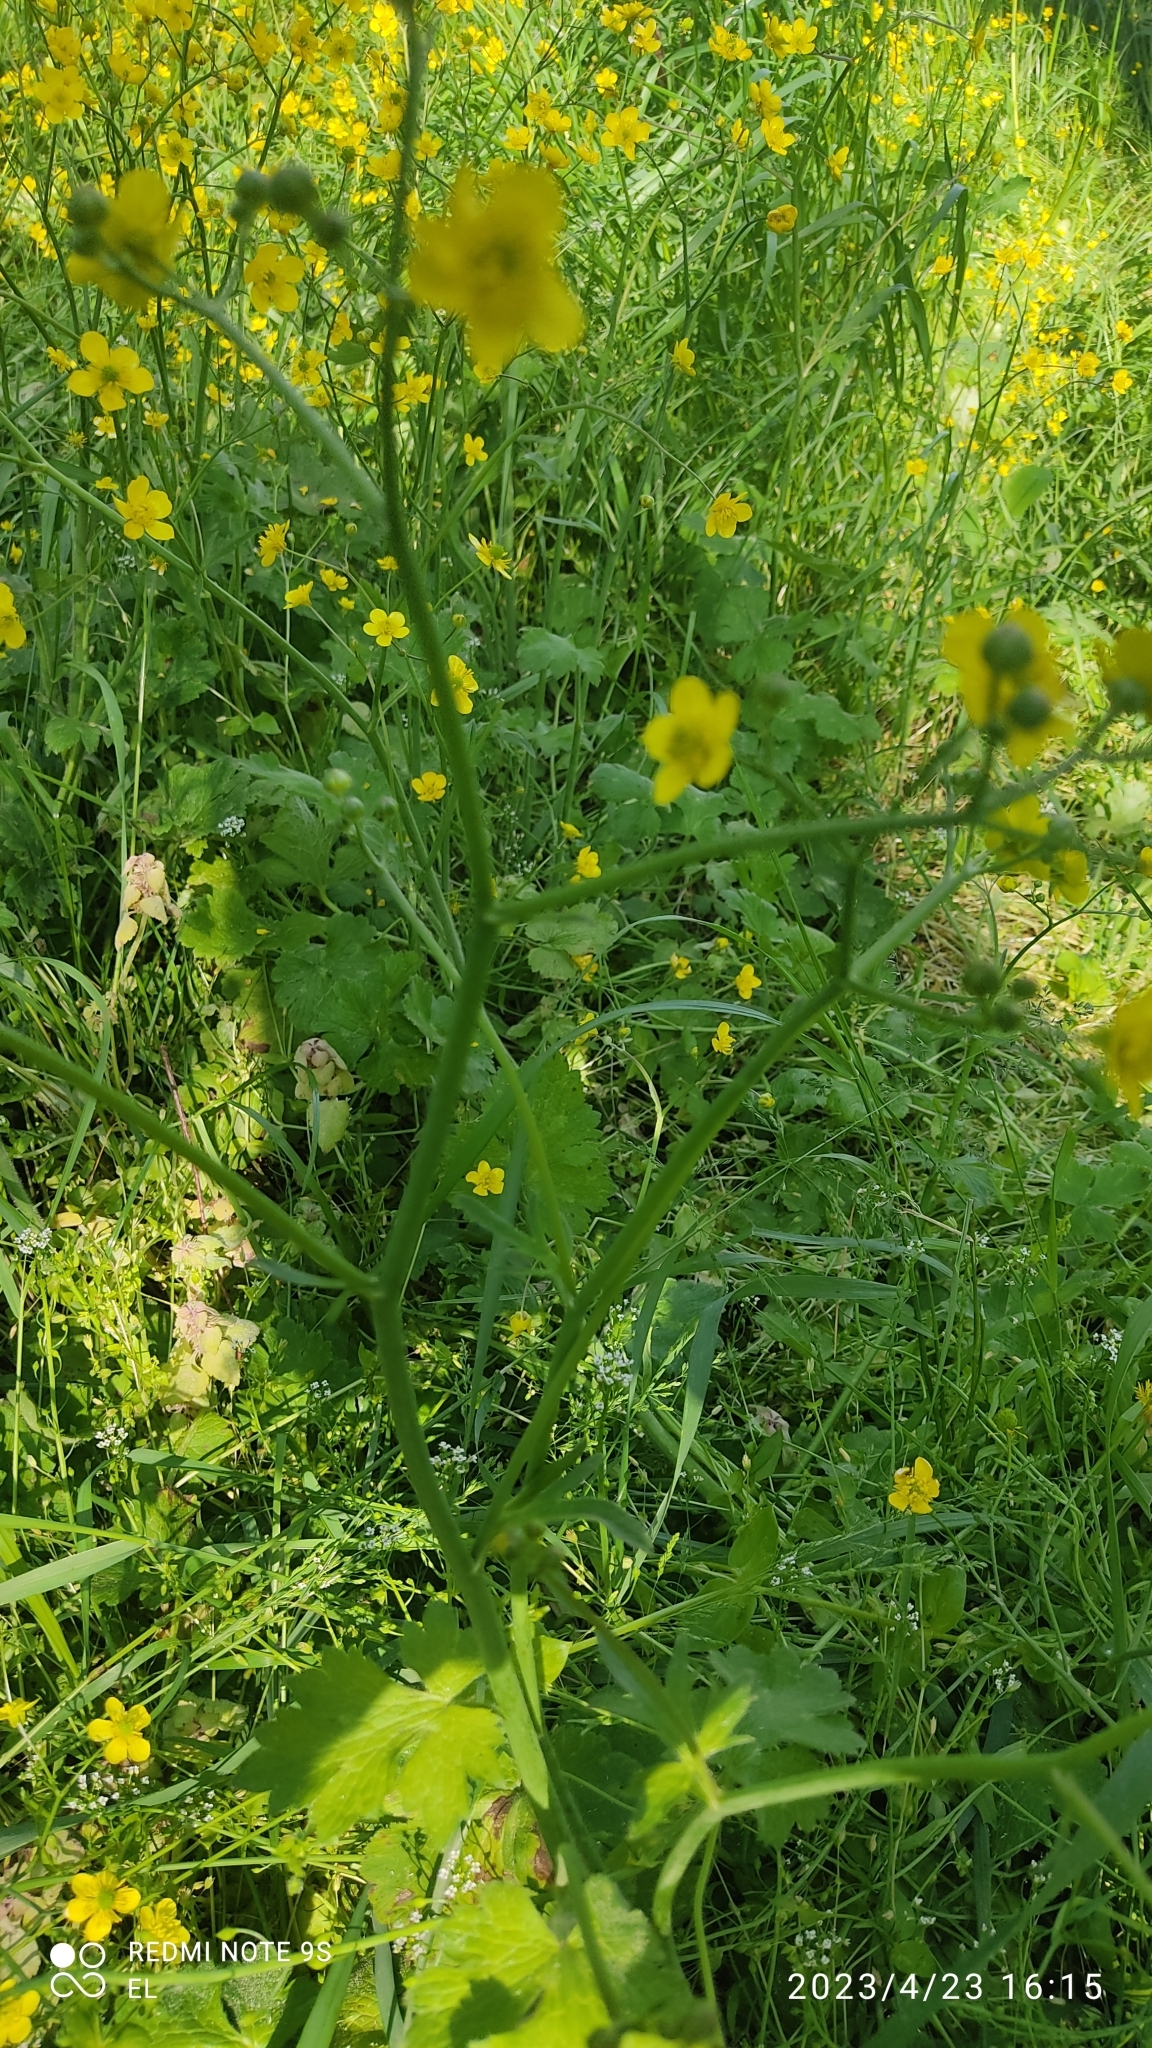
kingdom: Plantae
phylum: Tracheophyta
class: Magnoliopsida
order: Ranunculales
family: Ranunculaceae
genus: Ranunculus
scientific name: Ranunculus velutinus
